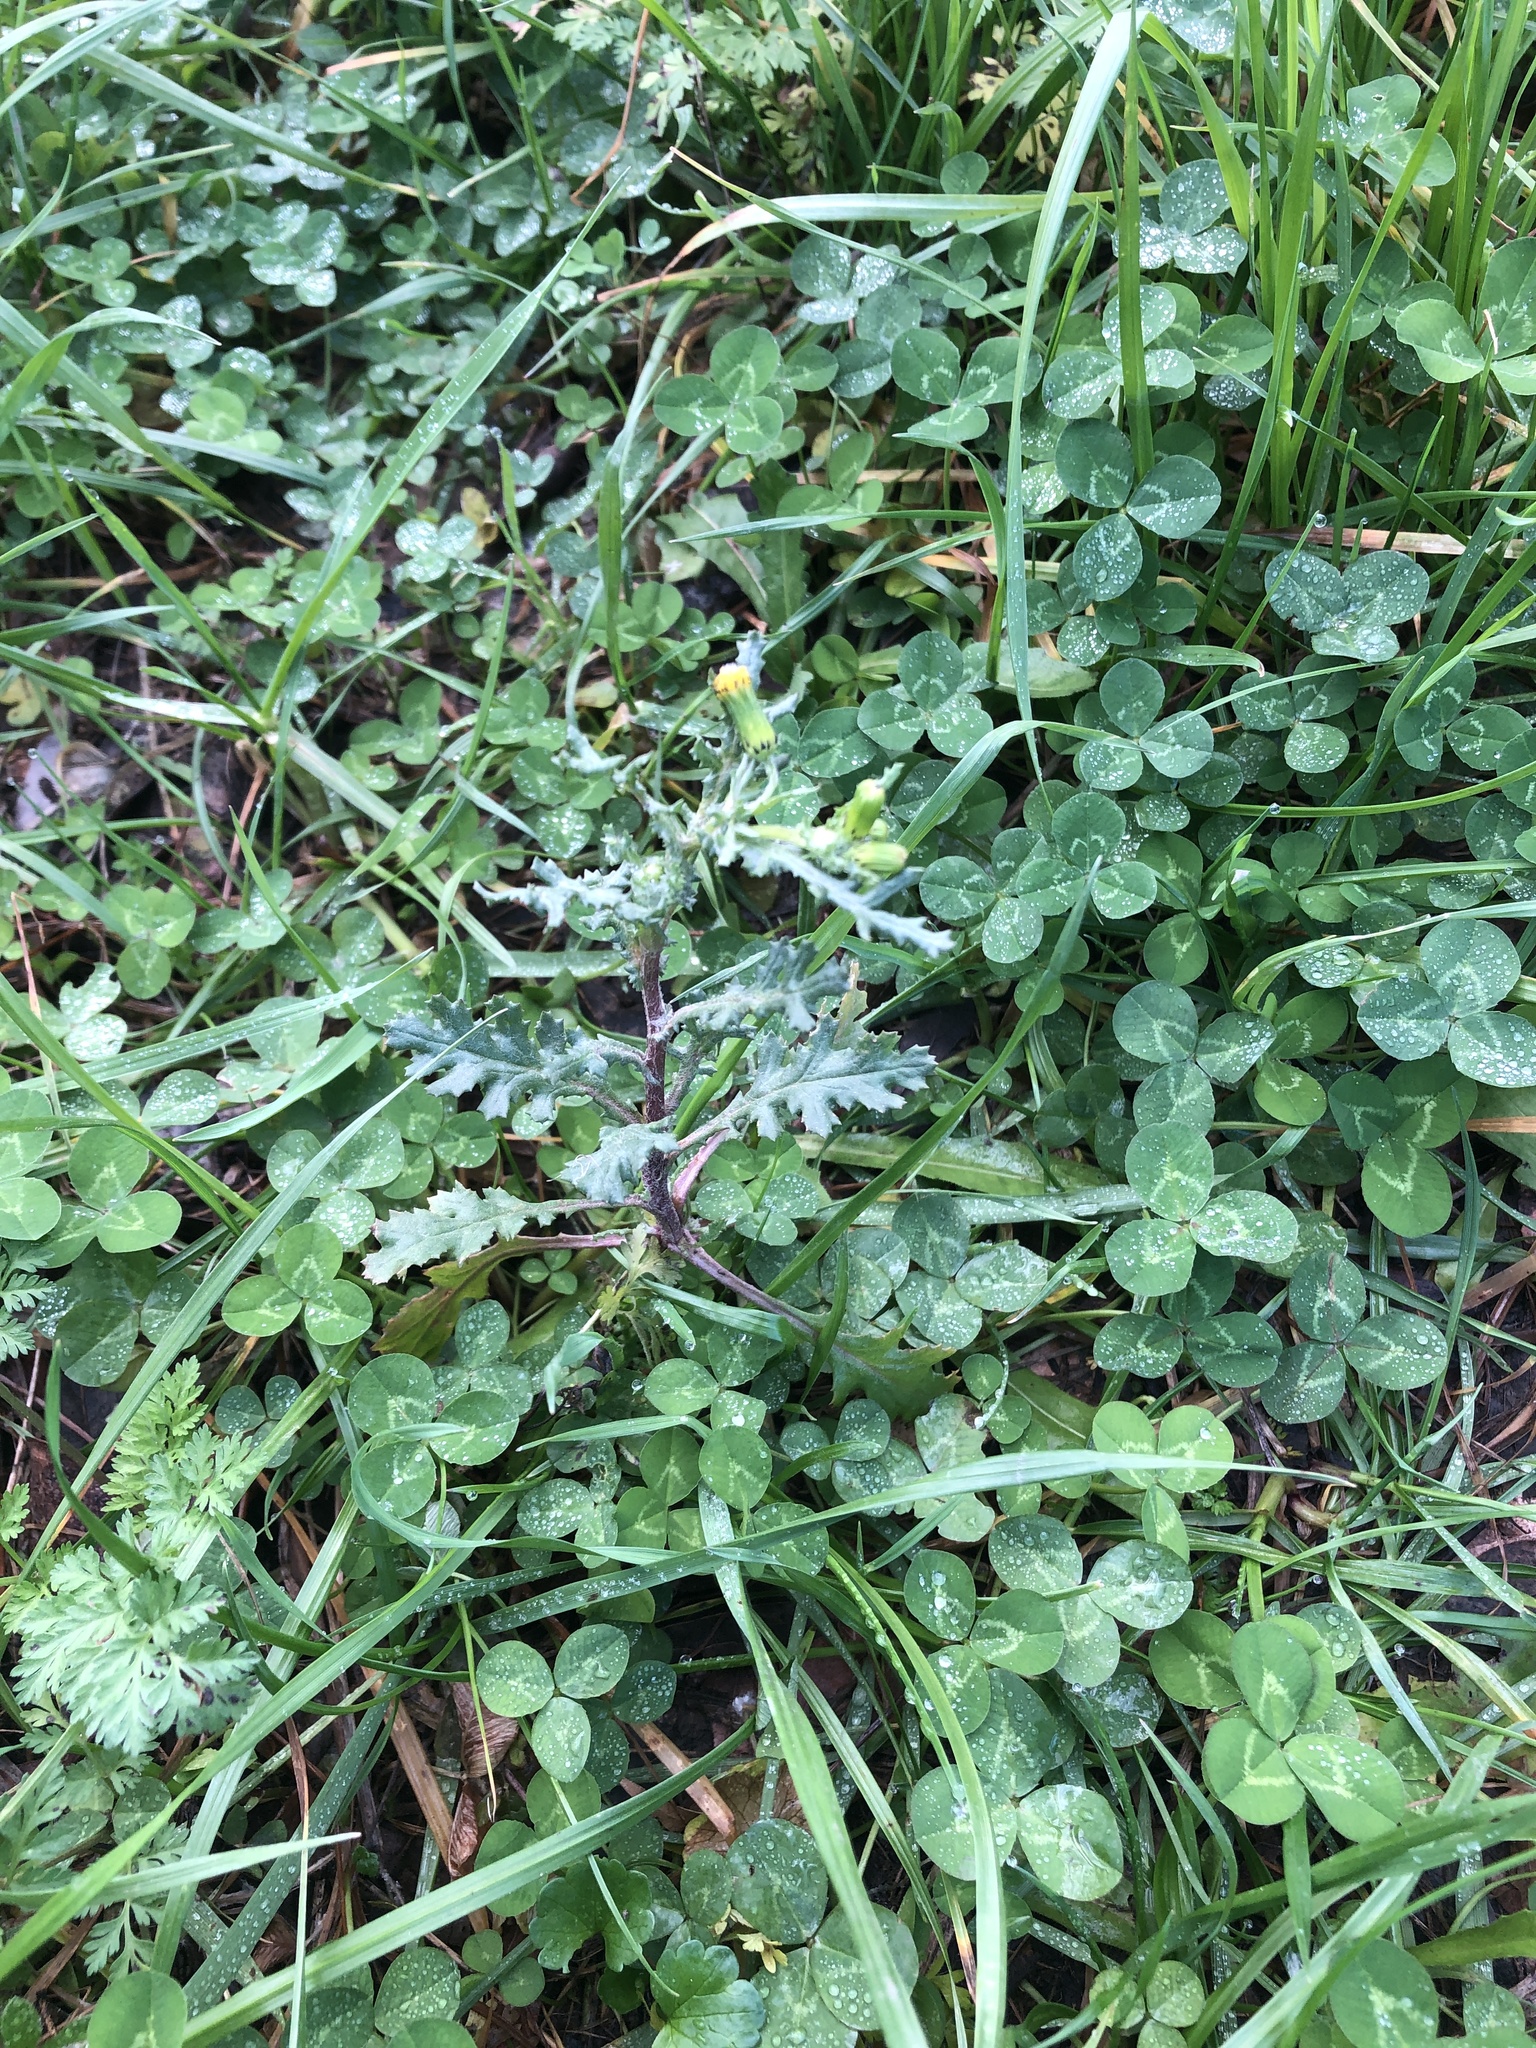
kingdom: Plantae
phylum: Tracheophyta
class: Magnoliopsida
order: Asterales
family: Asteraceae
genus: Senecio
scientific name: Senecio vulgaris
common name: Old-man-in-the-spring
